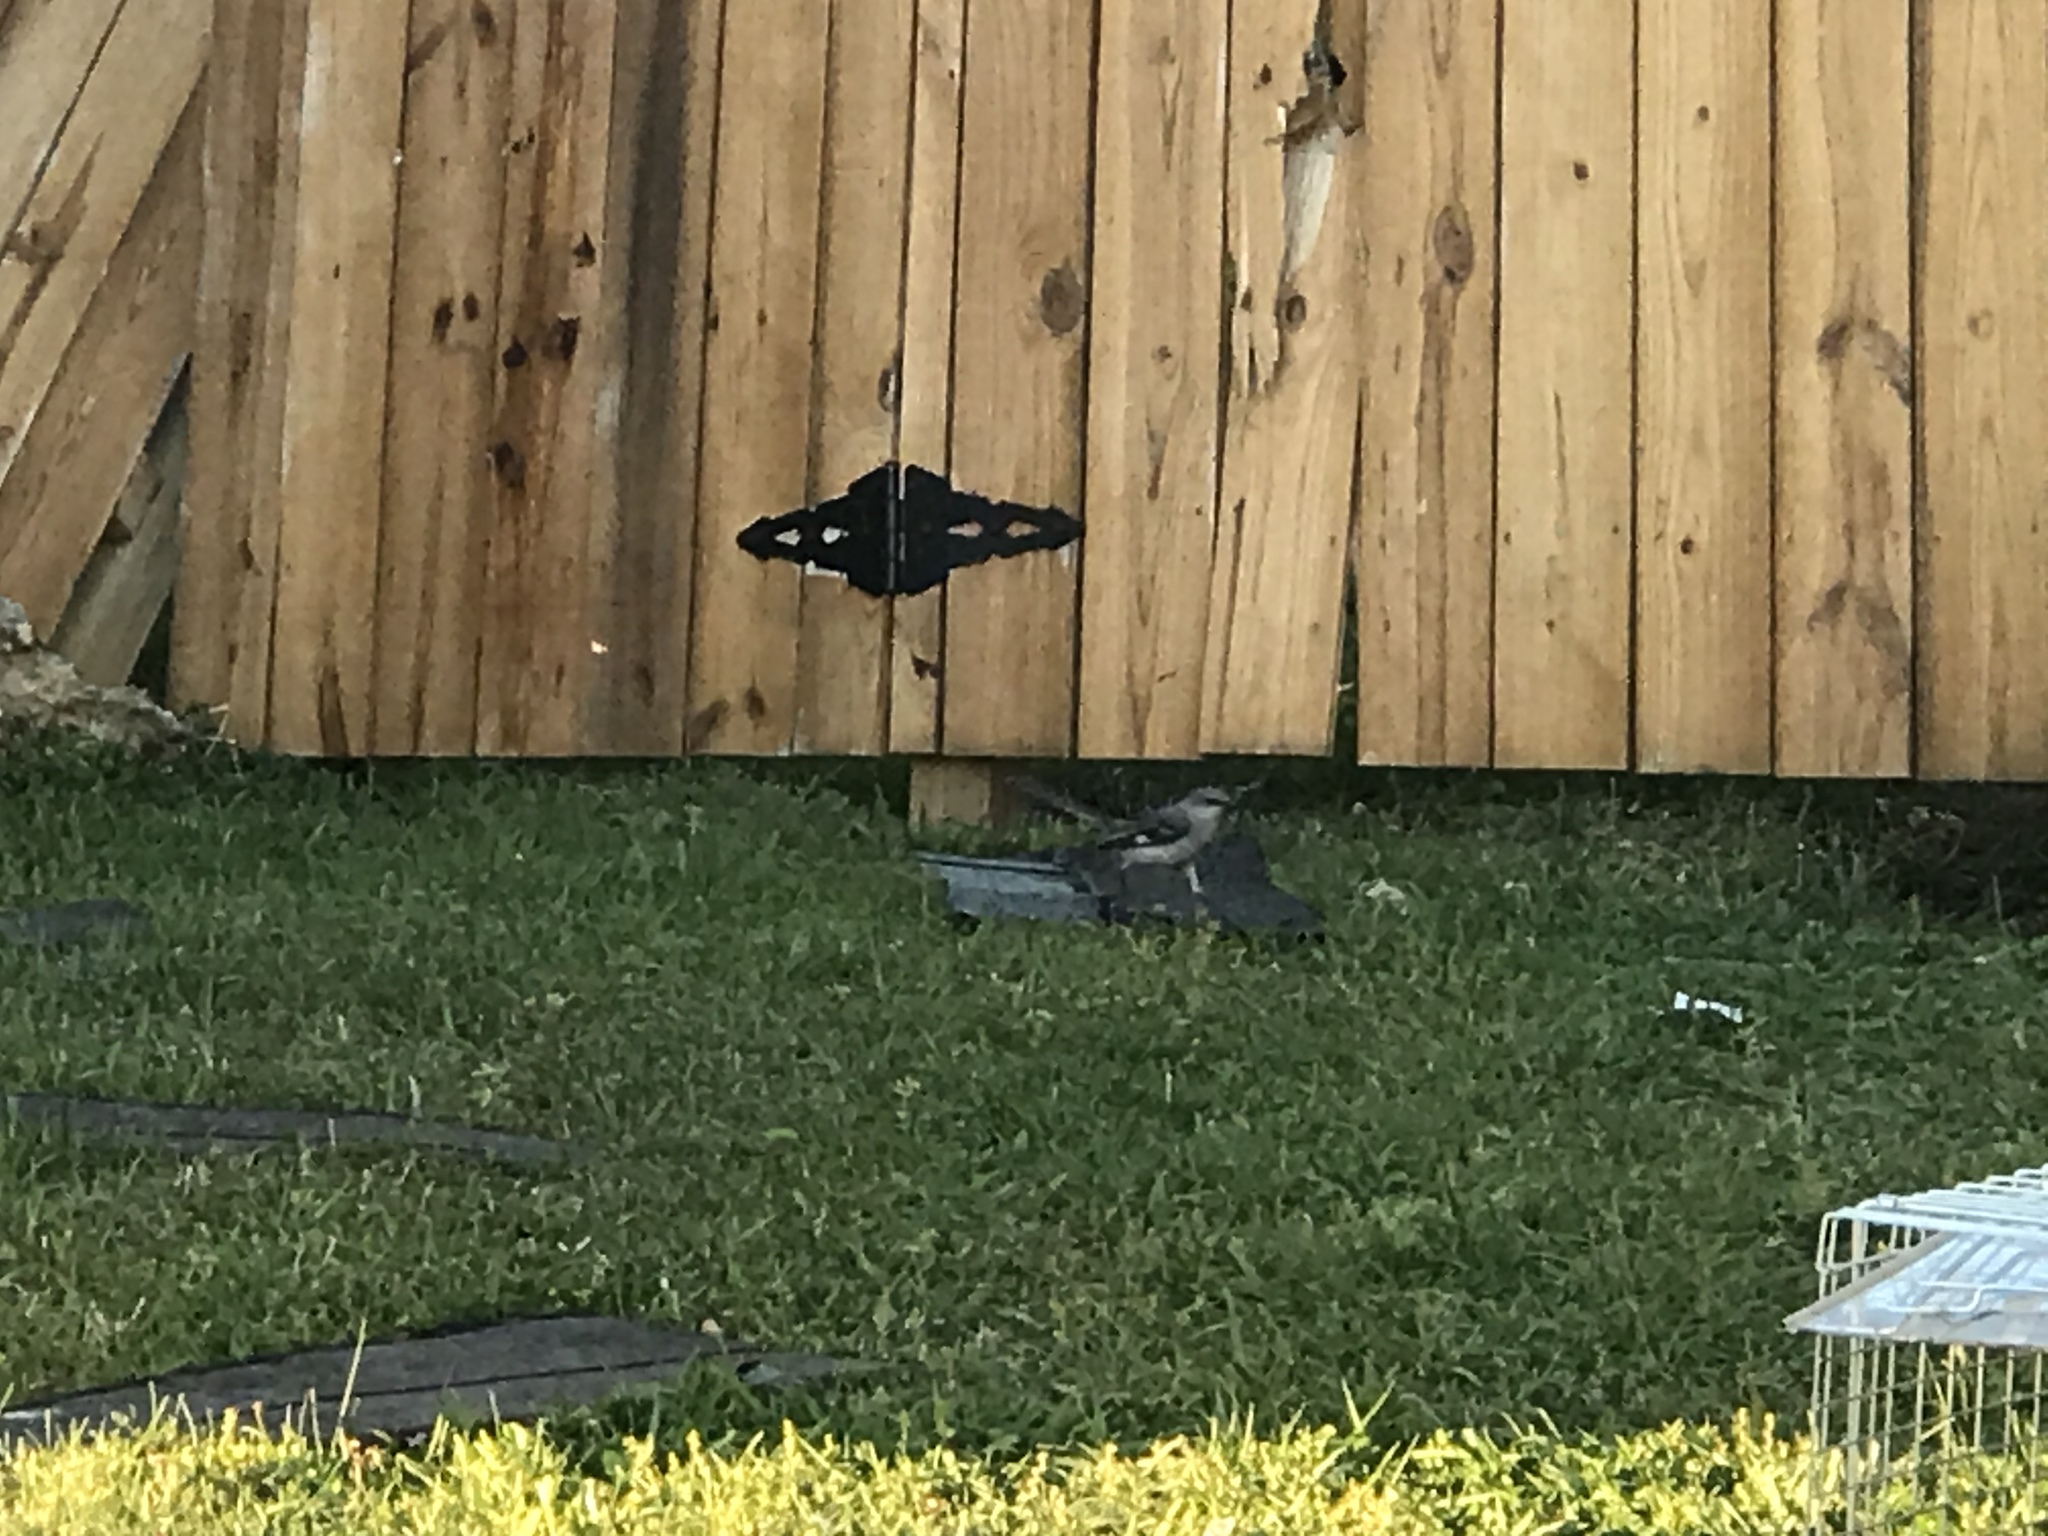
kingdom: Animalia
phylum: Chordata
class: Aves
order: Passeriformes
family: Mimidae
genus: Mimus
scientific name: Mimus polyglottos
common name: Northern mockingbird
